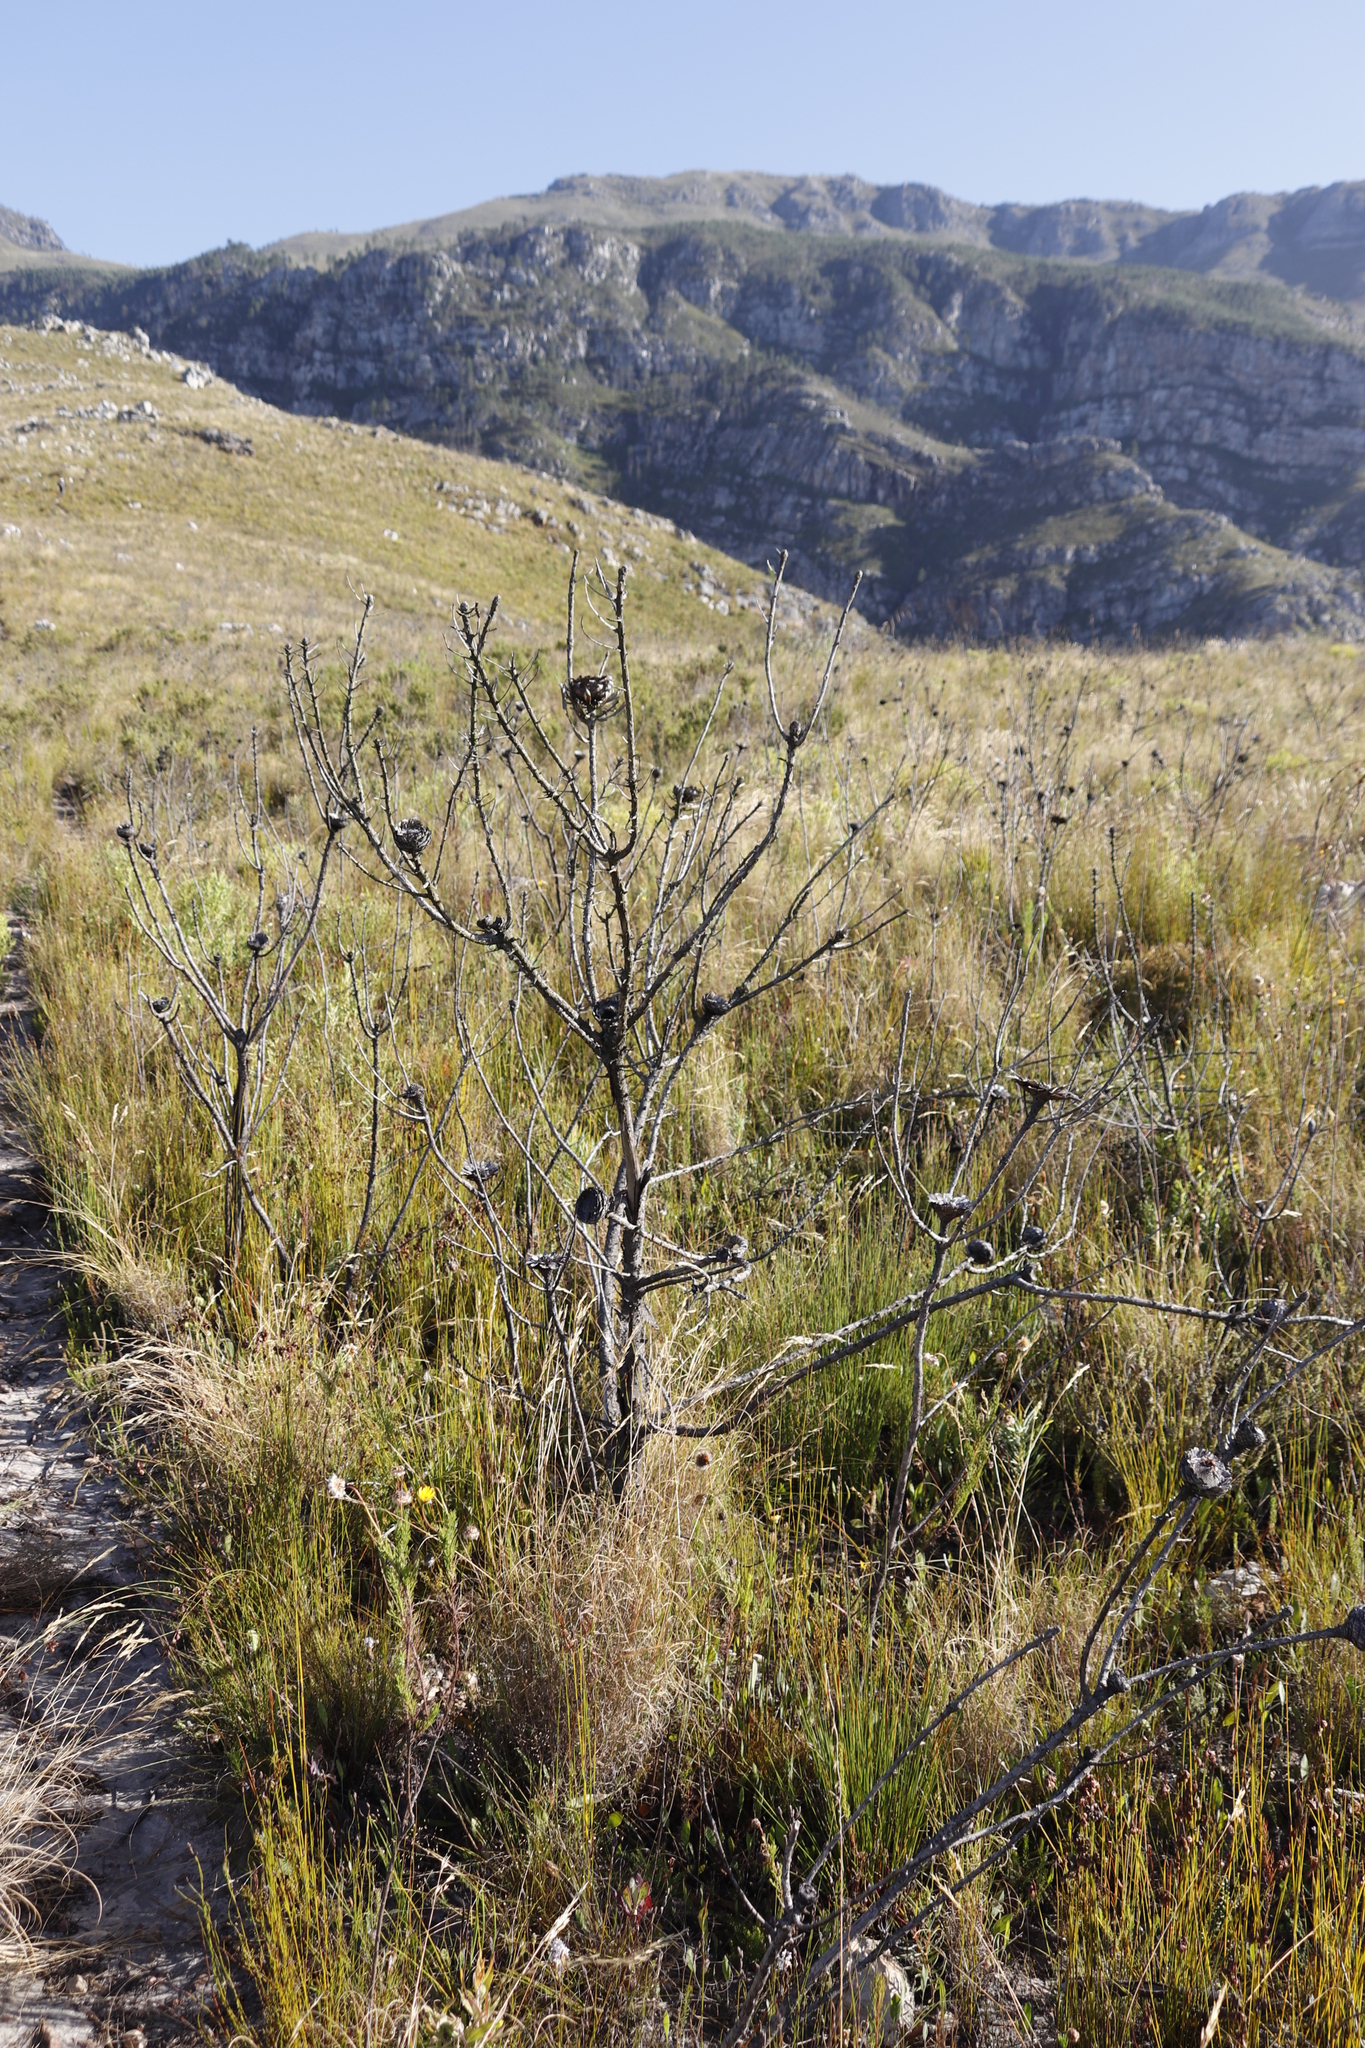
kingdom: Plantae
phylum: Tracheophyta
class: Magnoliopsida
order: Proteales
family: Proteaceae
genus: Protea
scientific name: Protea repens
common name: Sugarbush
